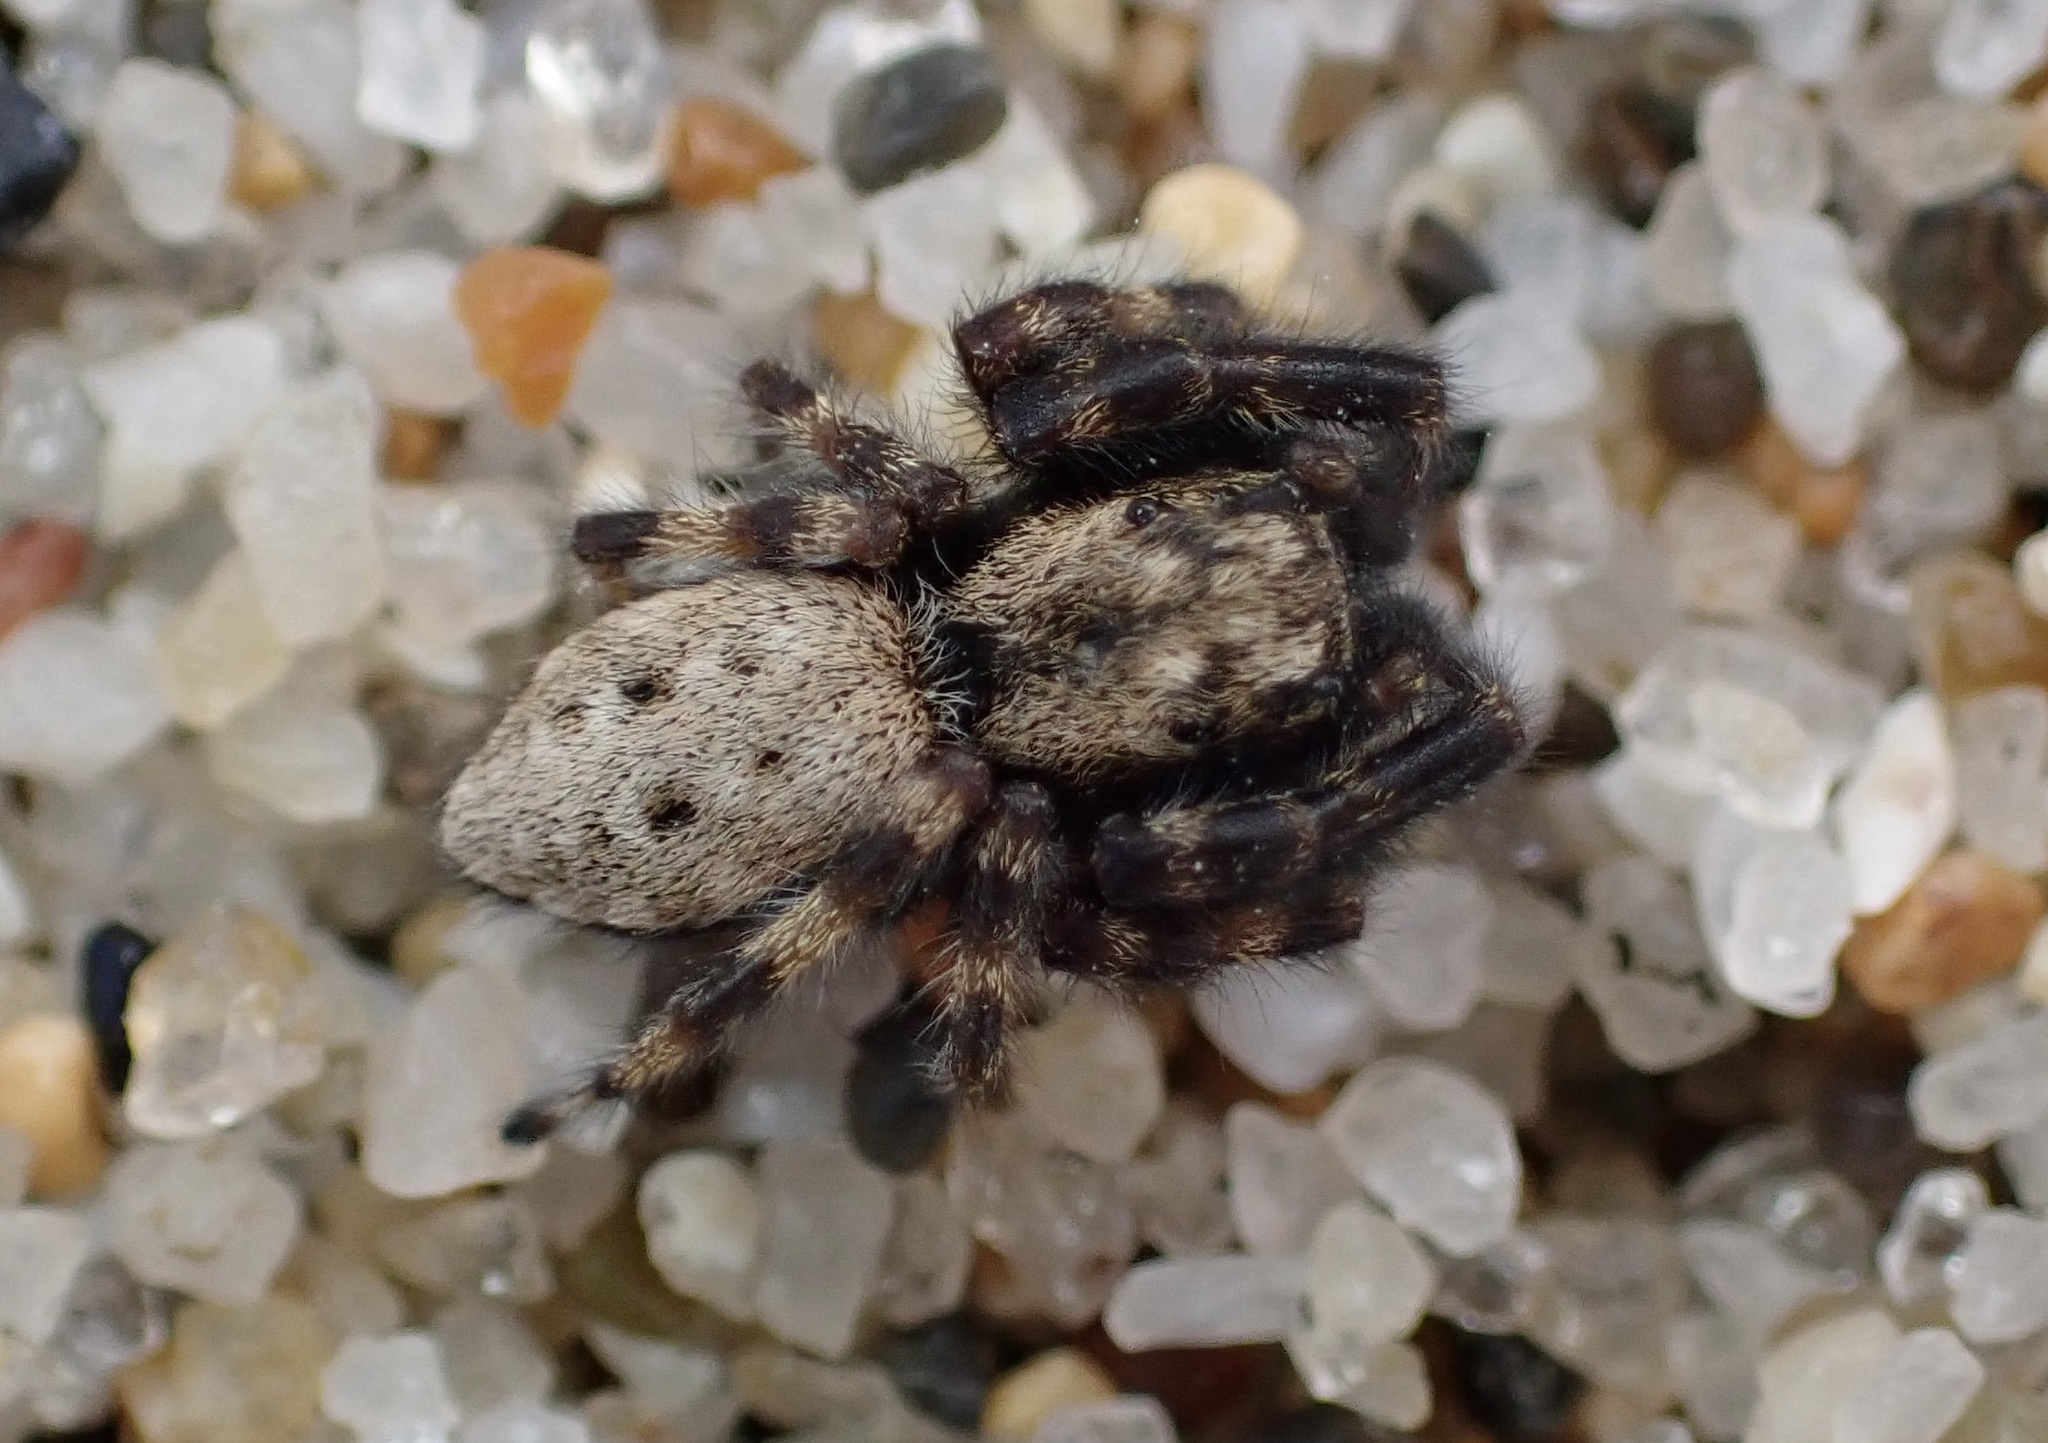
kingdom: Animalia
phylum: Arthropoda
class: Arachnida
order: Araneae
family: Salticidae
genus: Terralonus
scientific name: Terralonus californicus
